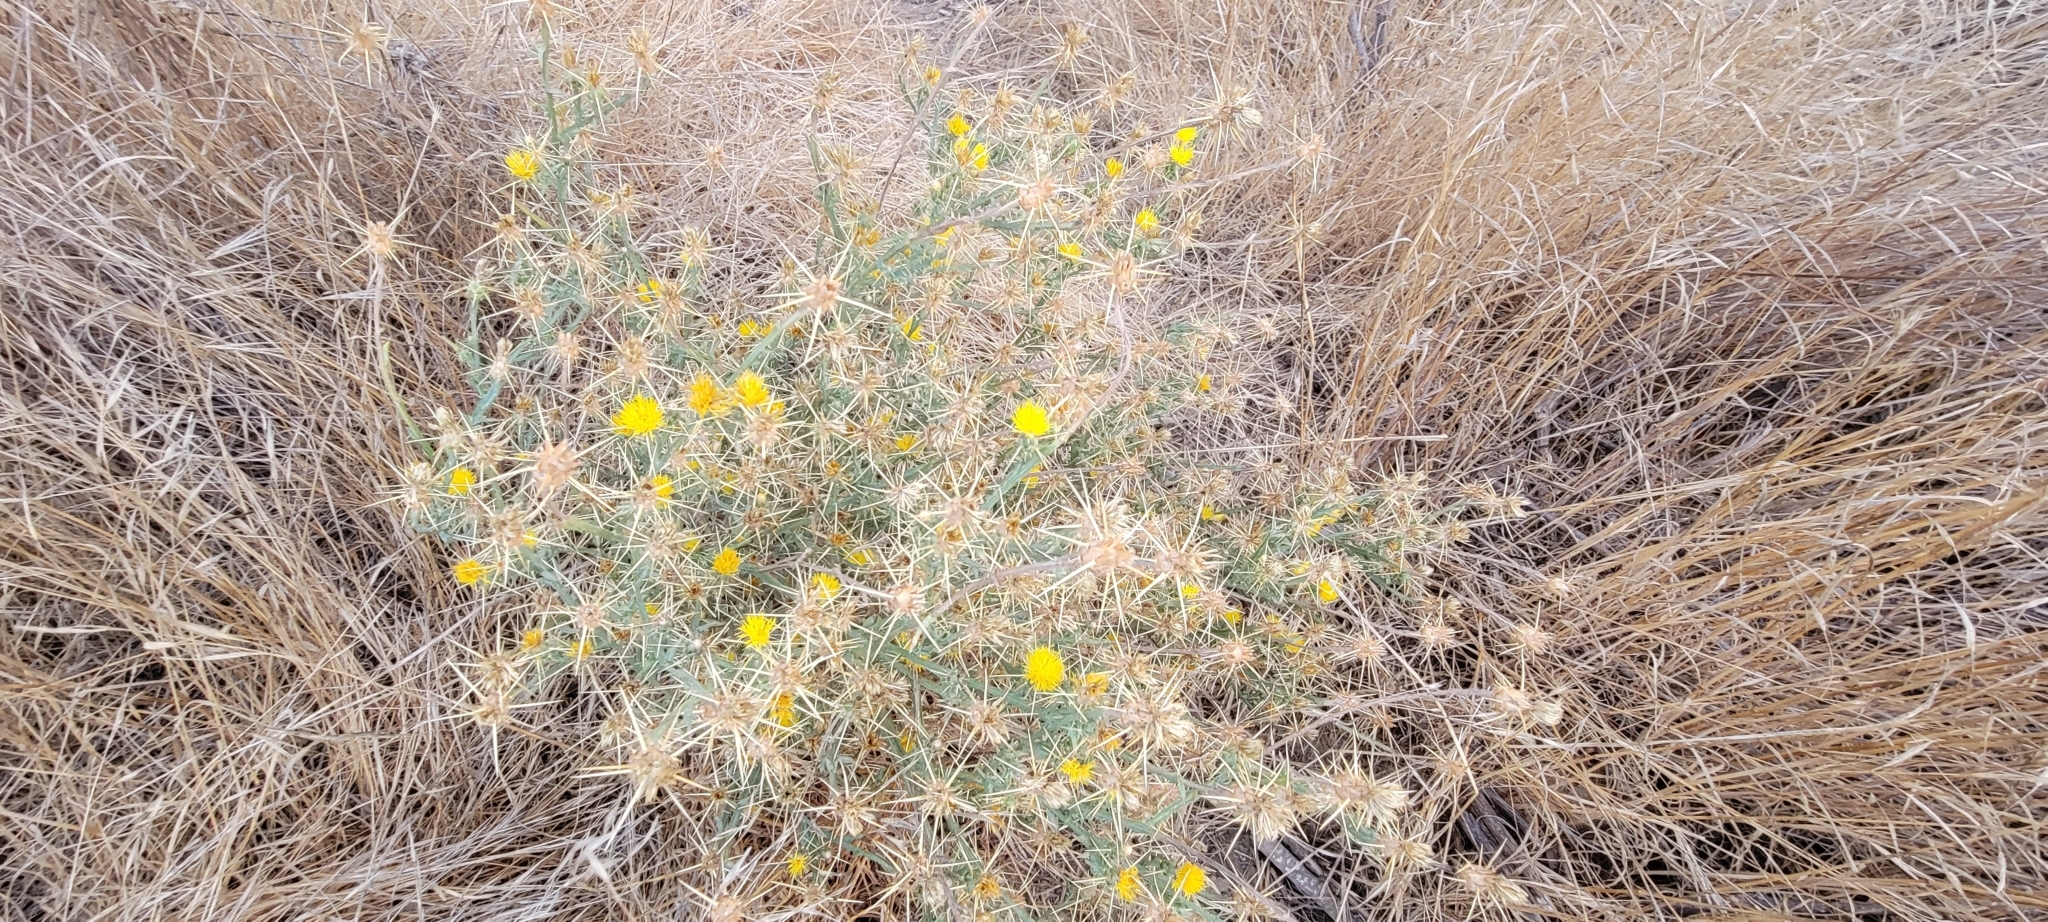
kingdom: Plantae
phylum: Tracheophyta
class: Magnoliopsida
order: Asterales
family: Asteraceae
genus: Centaurea
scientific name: Centaurea solstitialis
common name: Yellow star-thistle
